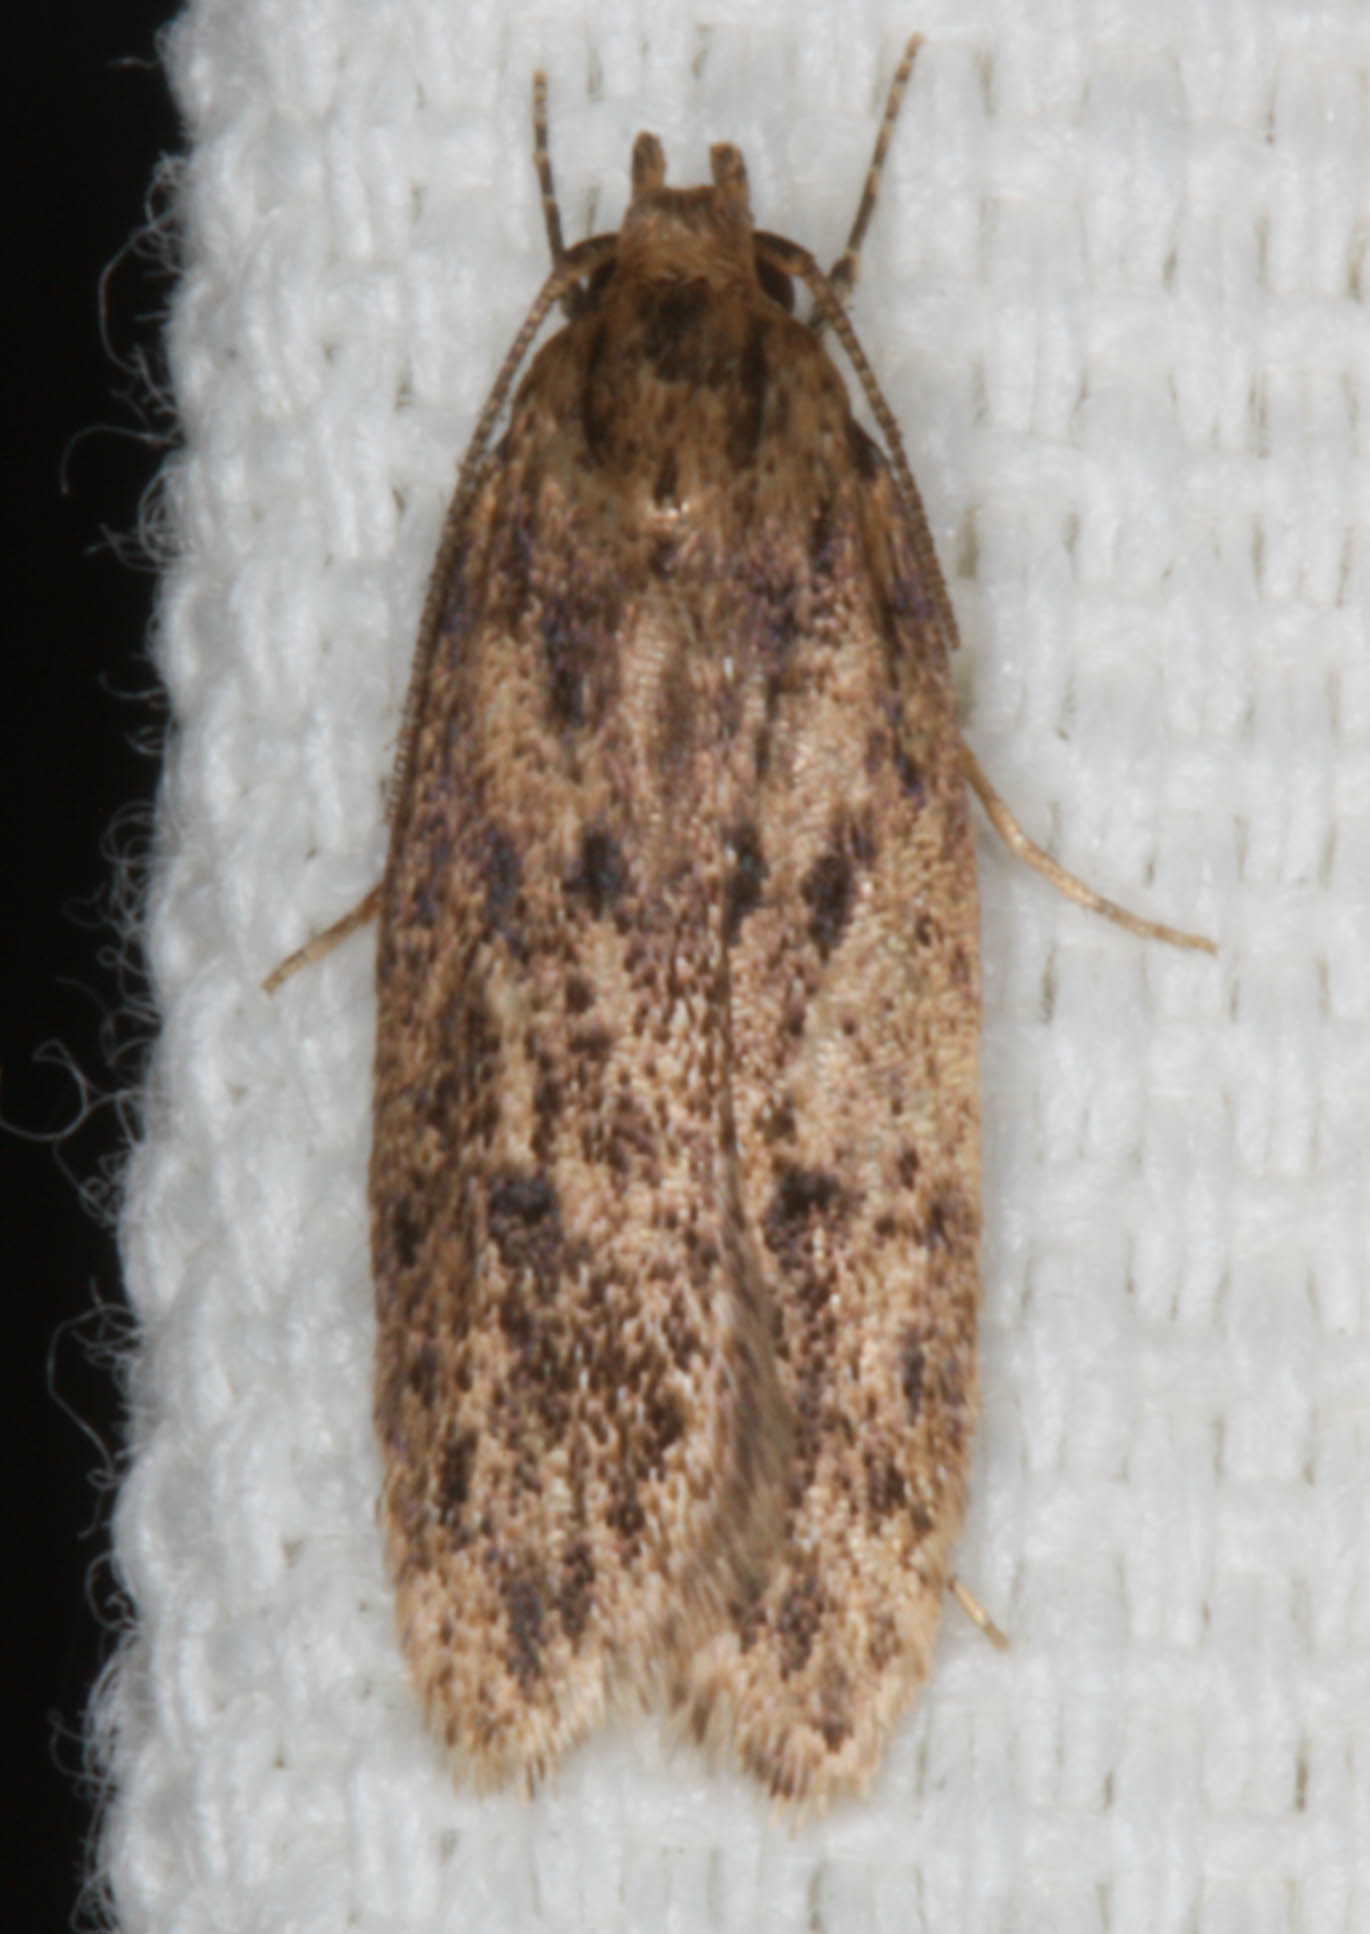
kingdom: Animalia
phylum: Arthropoda
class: Insecta
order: Lepidoptera
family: Oecophoridae
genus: Hofmannophila
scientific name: Hofmannophila pseudospretella
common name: Brown house moth
